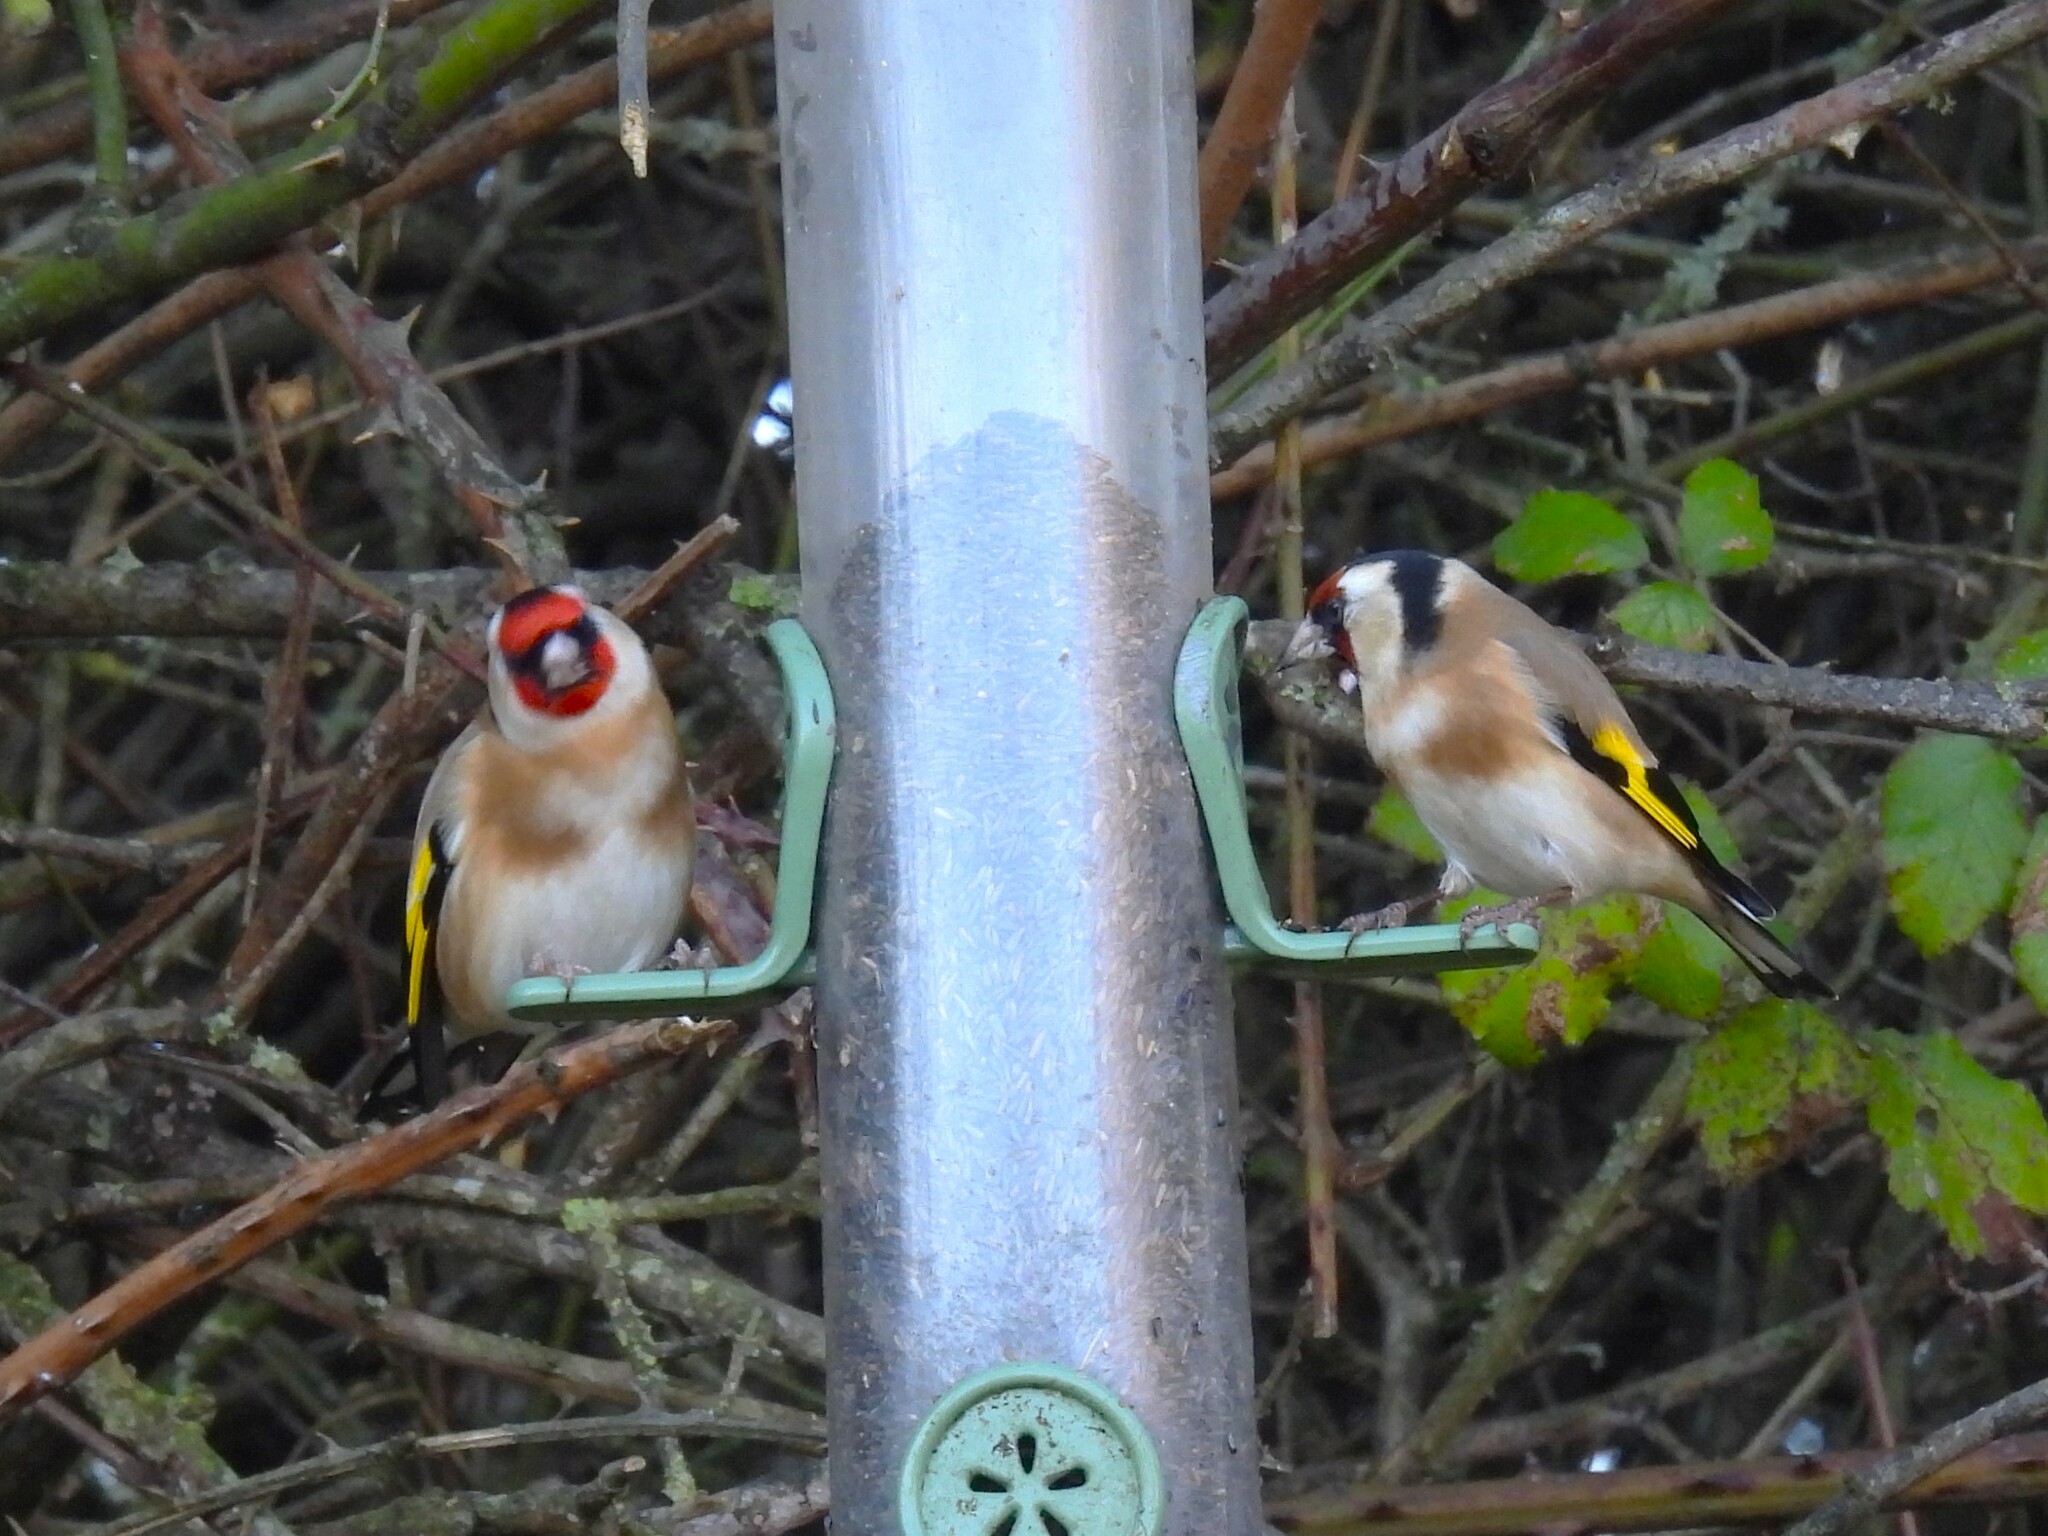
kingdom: Animalia
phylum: Chordata
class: Aves
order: Passeriformes
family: Fringillidae
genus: Carduelis
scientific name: Carduelis carduelis
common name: European goldfinch
